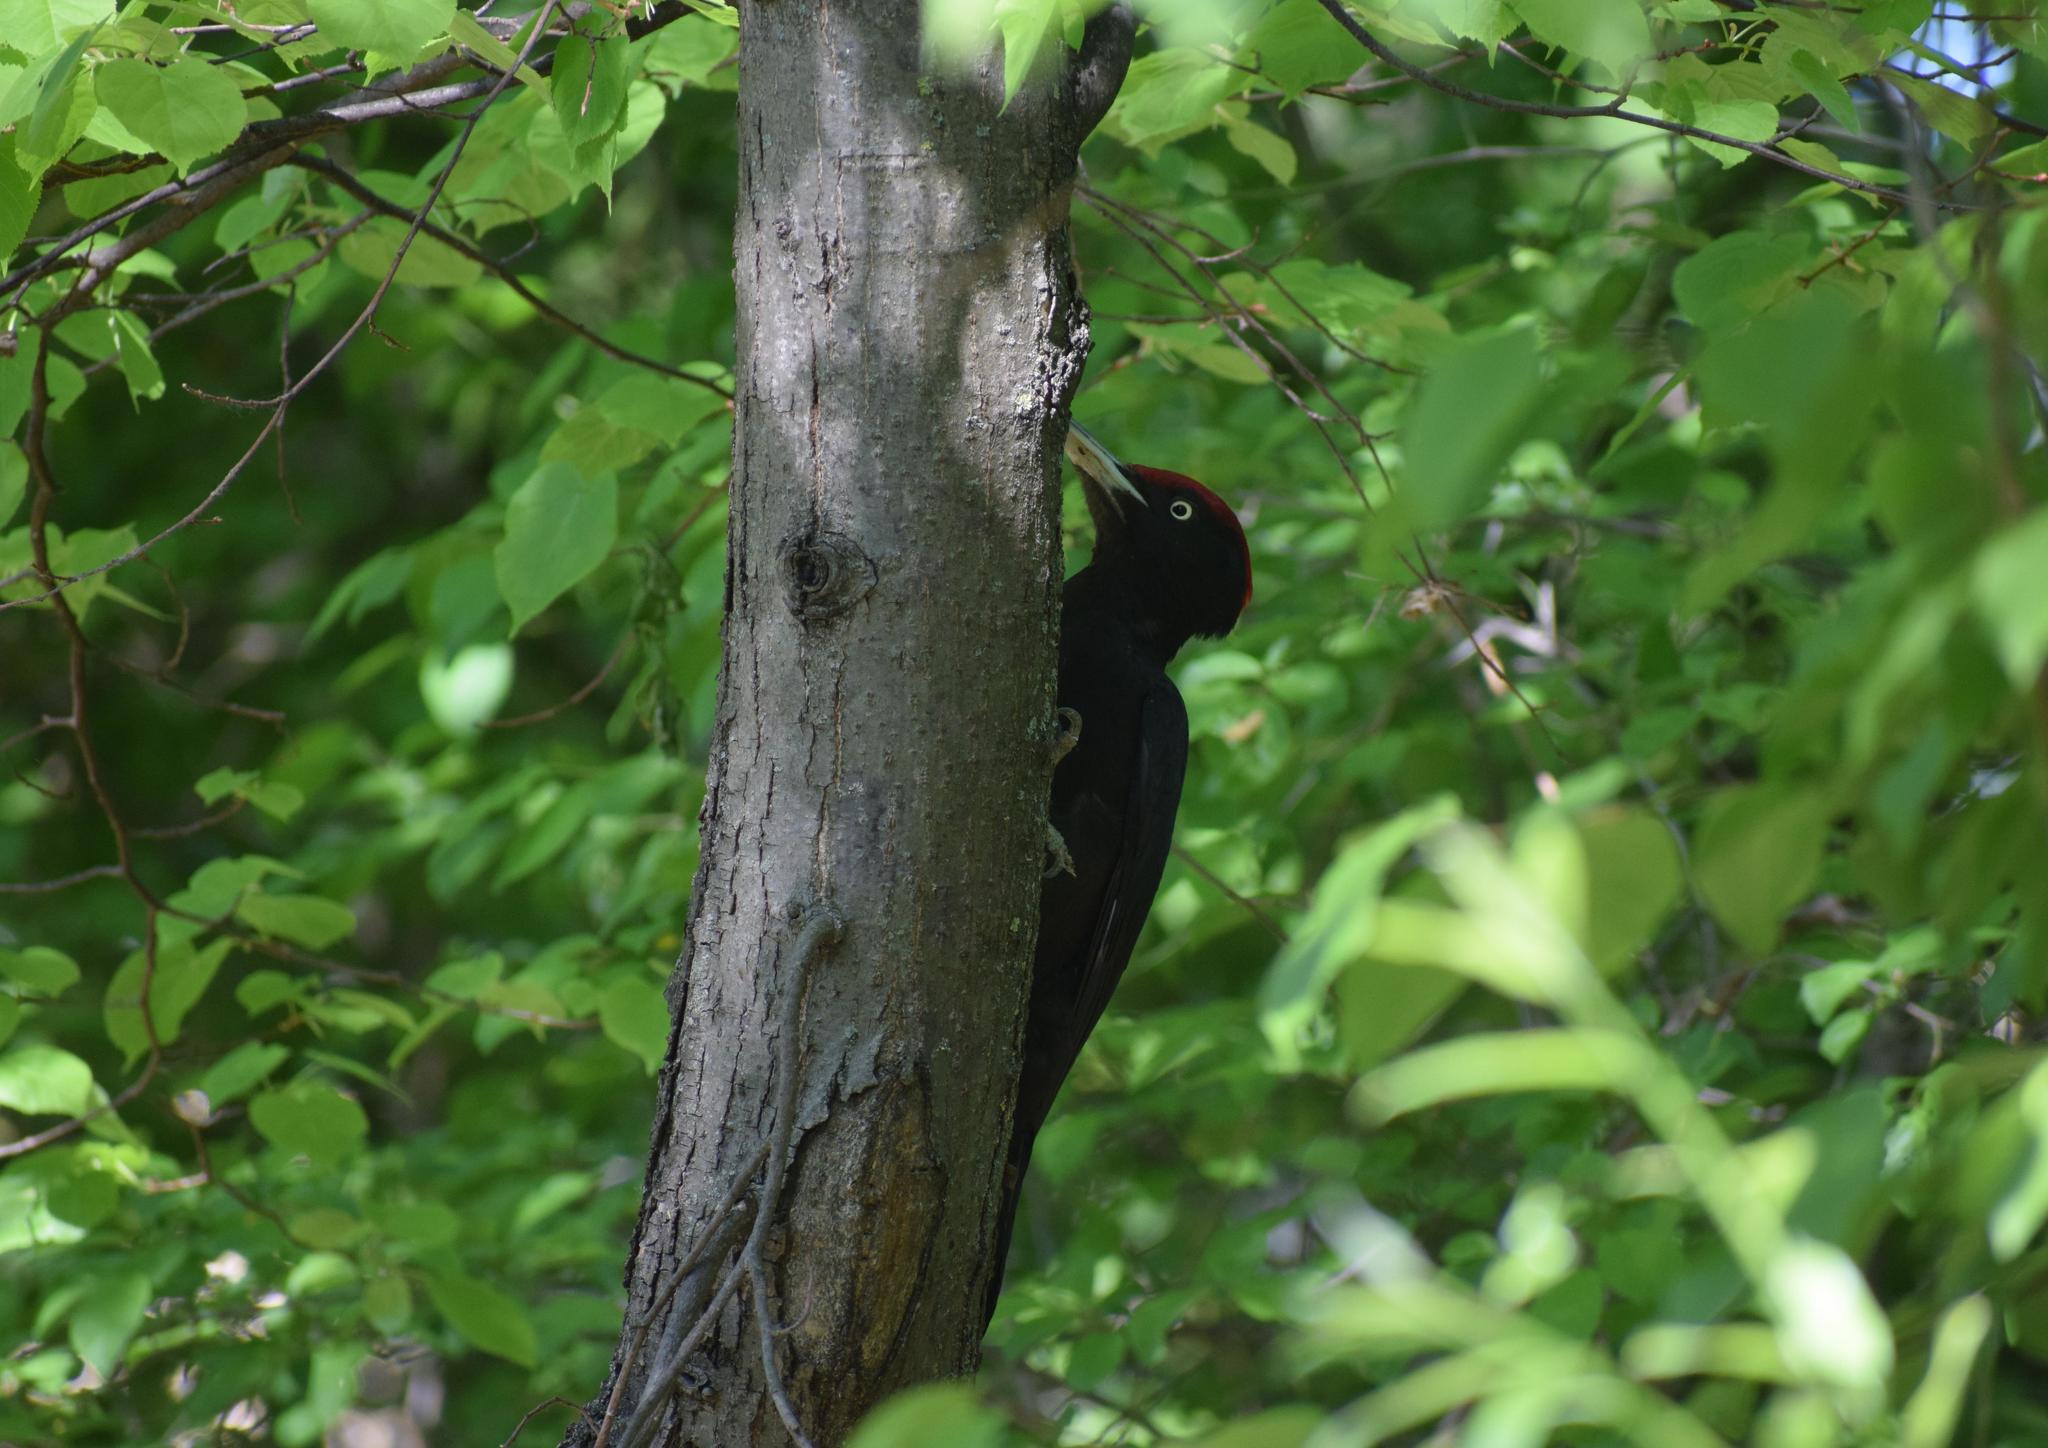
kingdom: Animalia
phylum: Chordata
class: Aves
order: Piciformes
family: Picidae
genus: Dryocopus
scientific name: Dryocopus martius
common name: Black woodpecker
